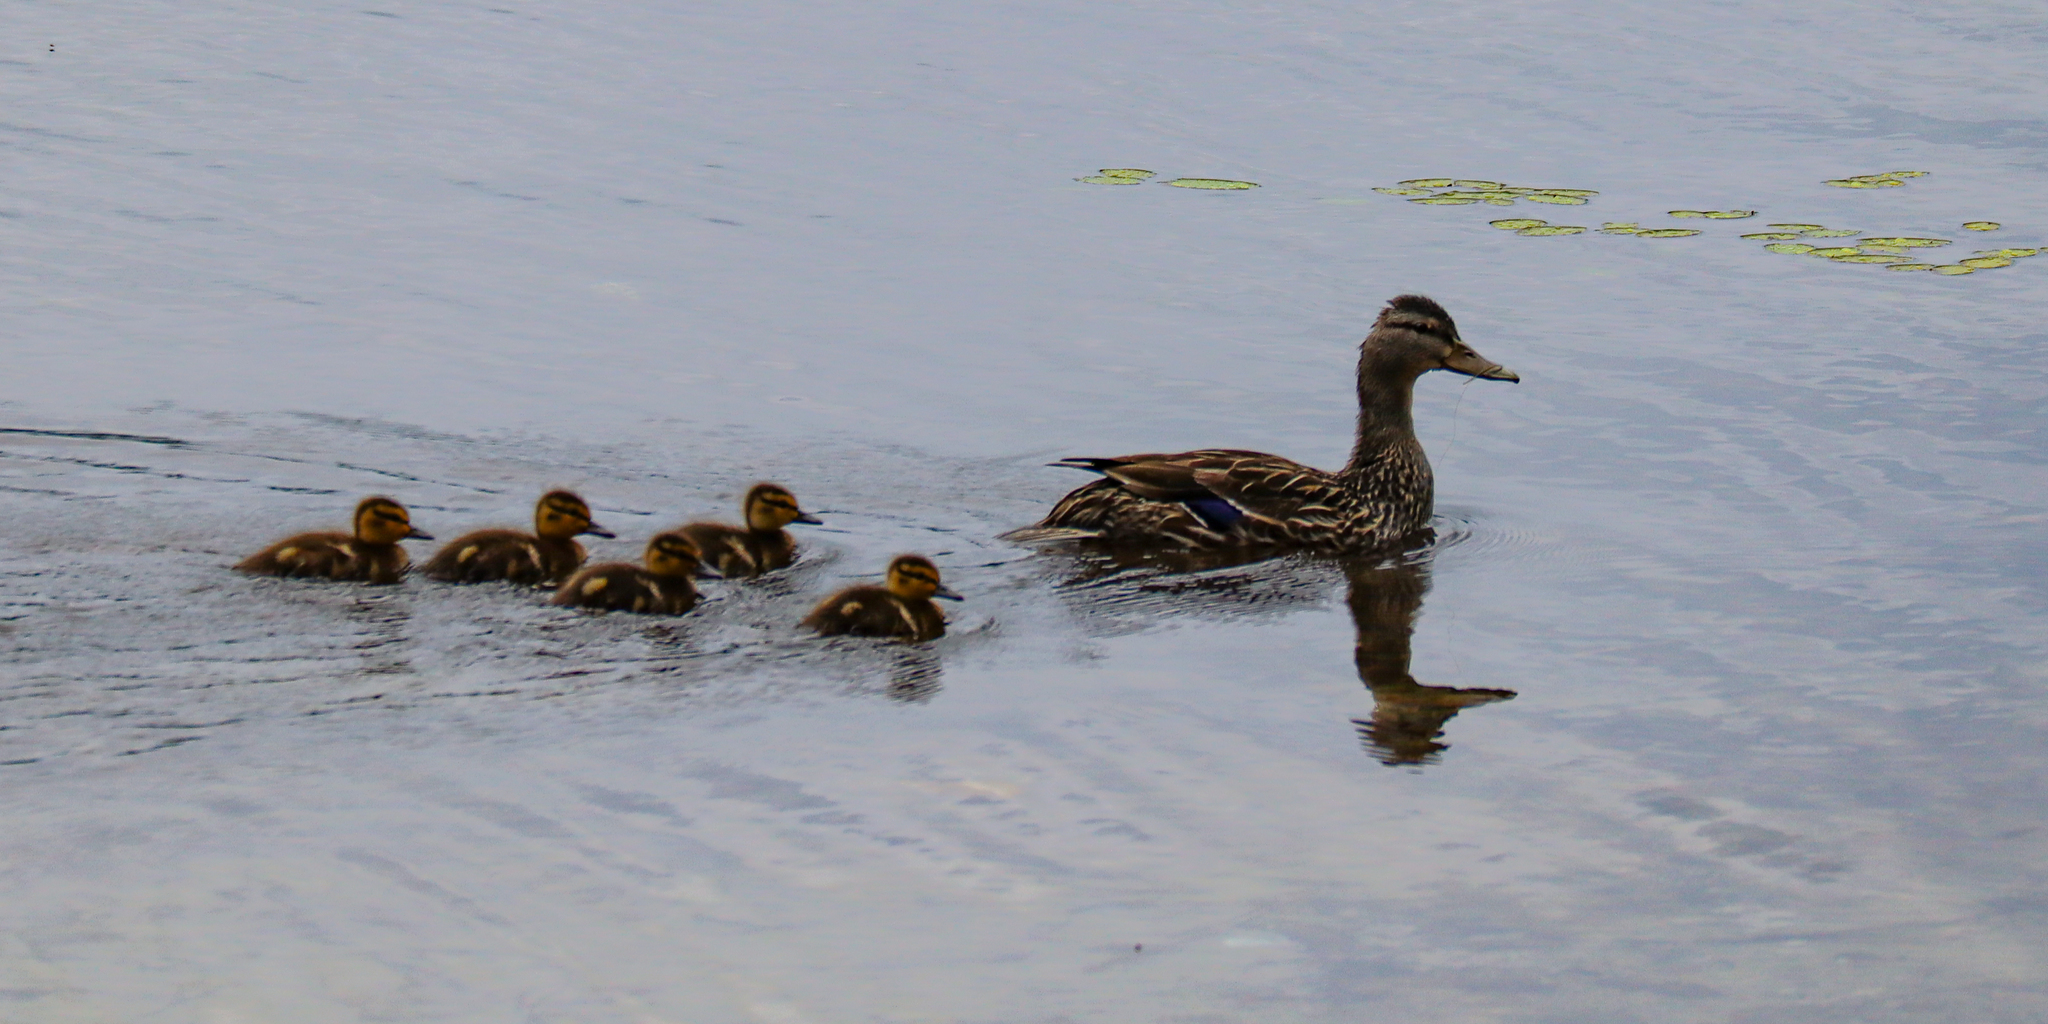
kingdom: Animalia
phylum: Chordata
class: Aves
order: Anseriformes
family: Anatidae
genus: Anas
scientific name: Anas platyrhynchos
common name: Mallard
